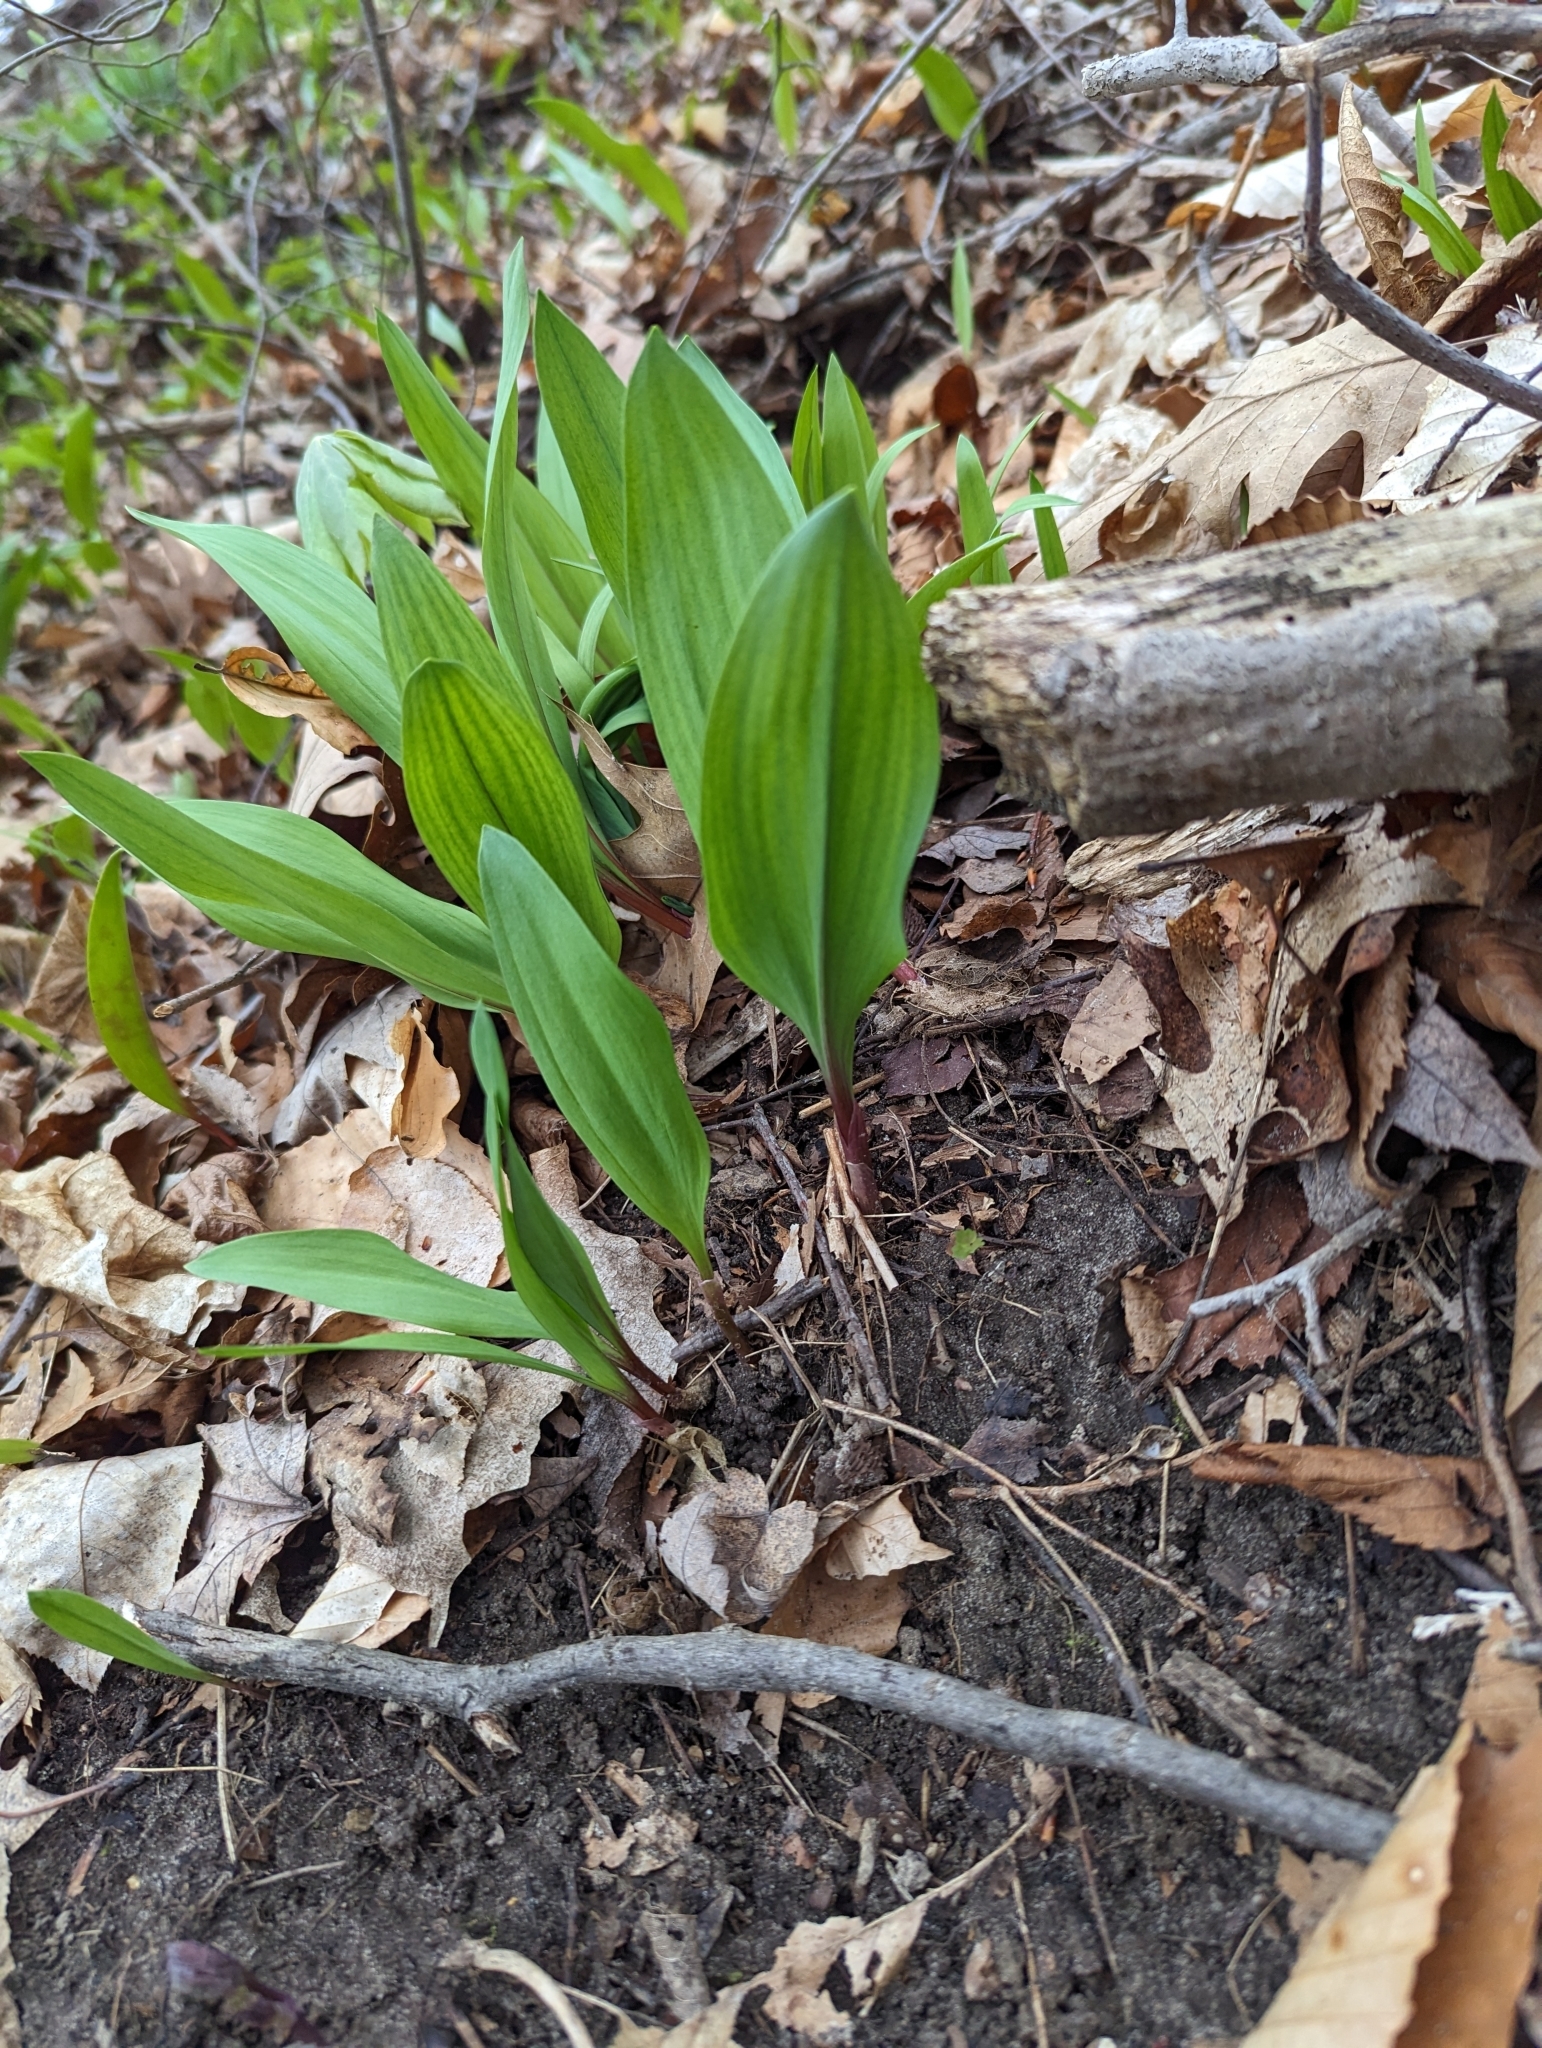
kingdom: Plantae
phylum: Tracheophyta
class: Liliopsida
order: Asparagales
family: Amaryllidaceae
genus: Allium
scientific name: Allium tricoccum
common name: Ramp
